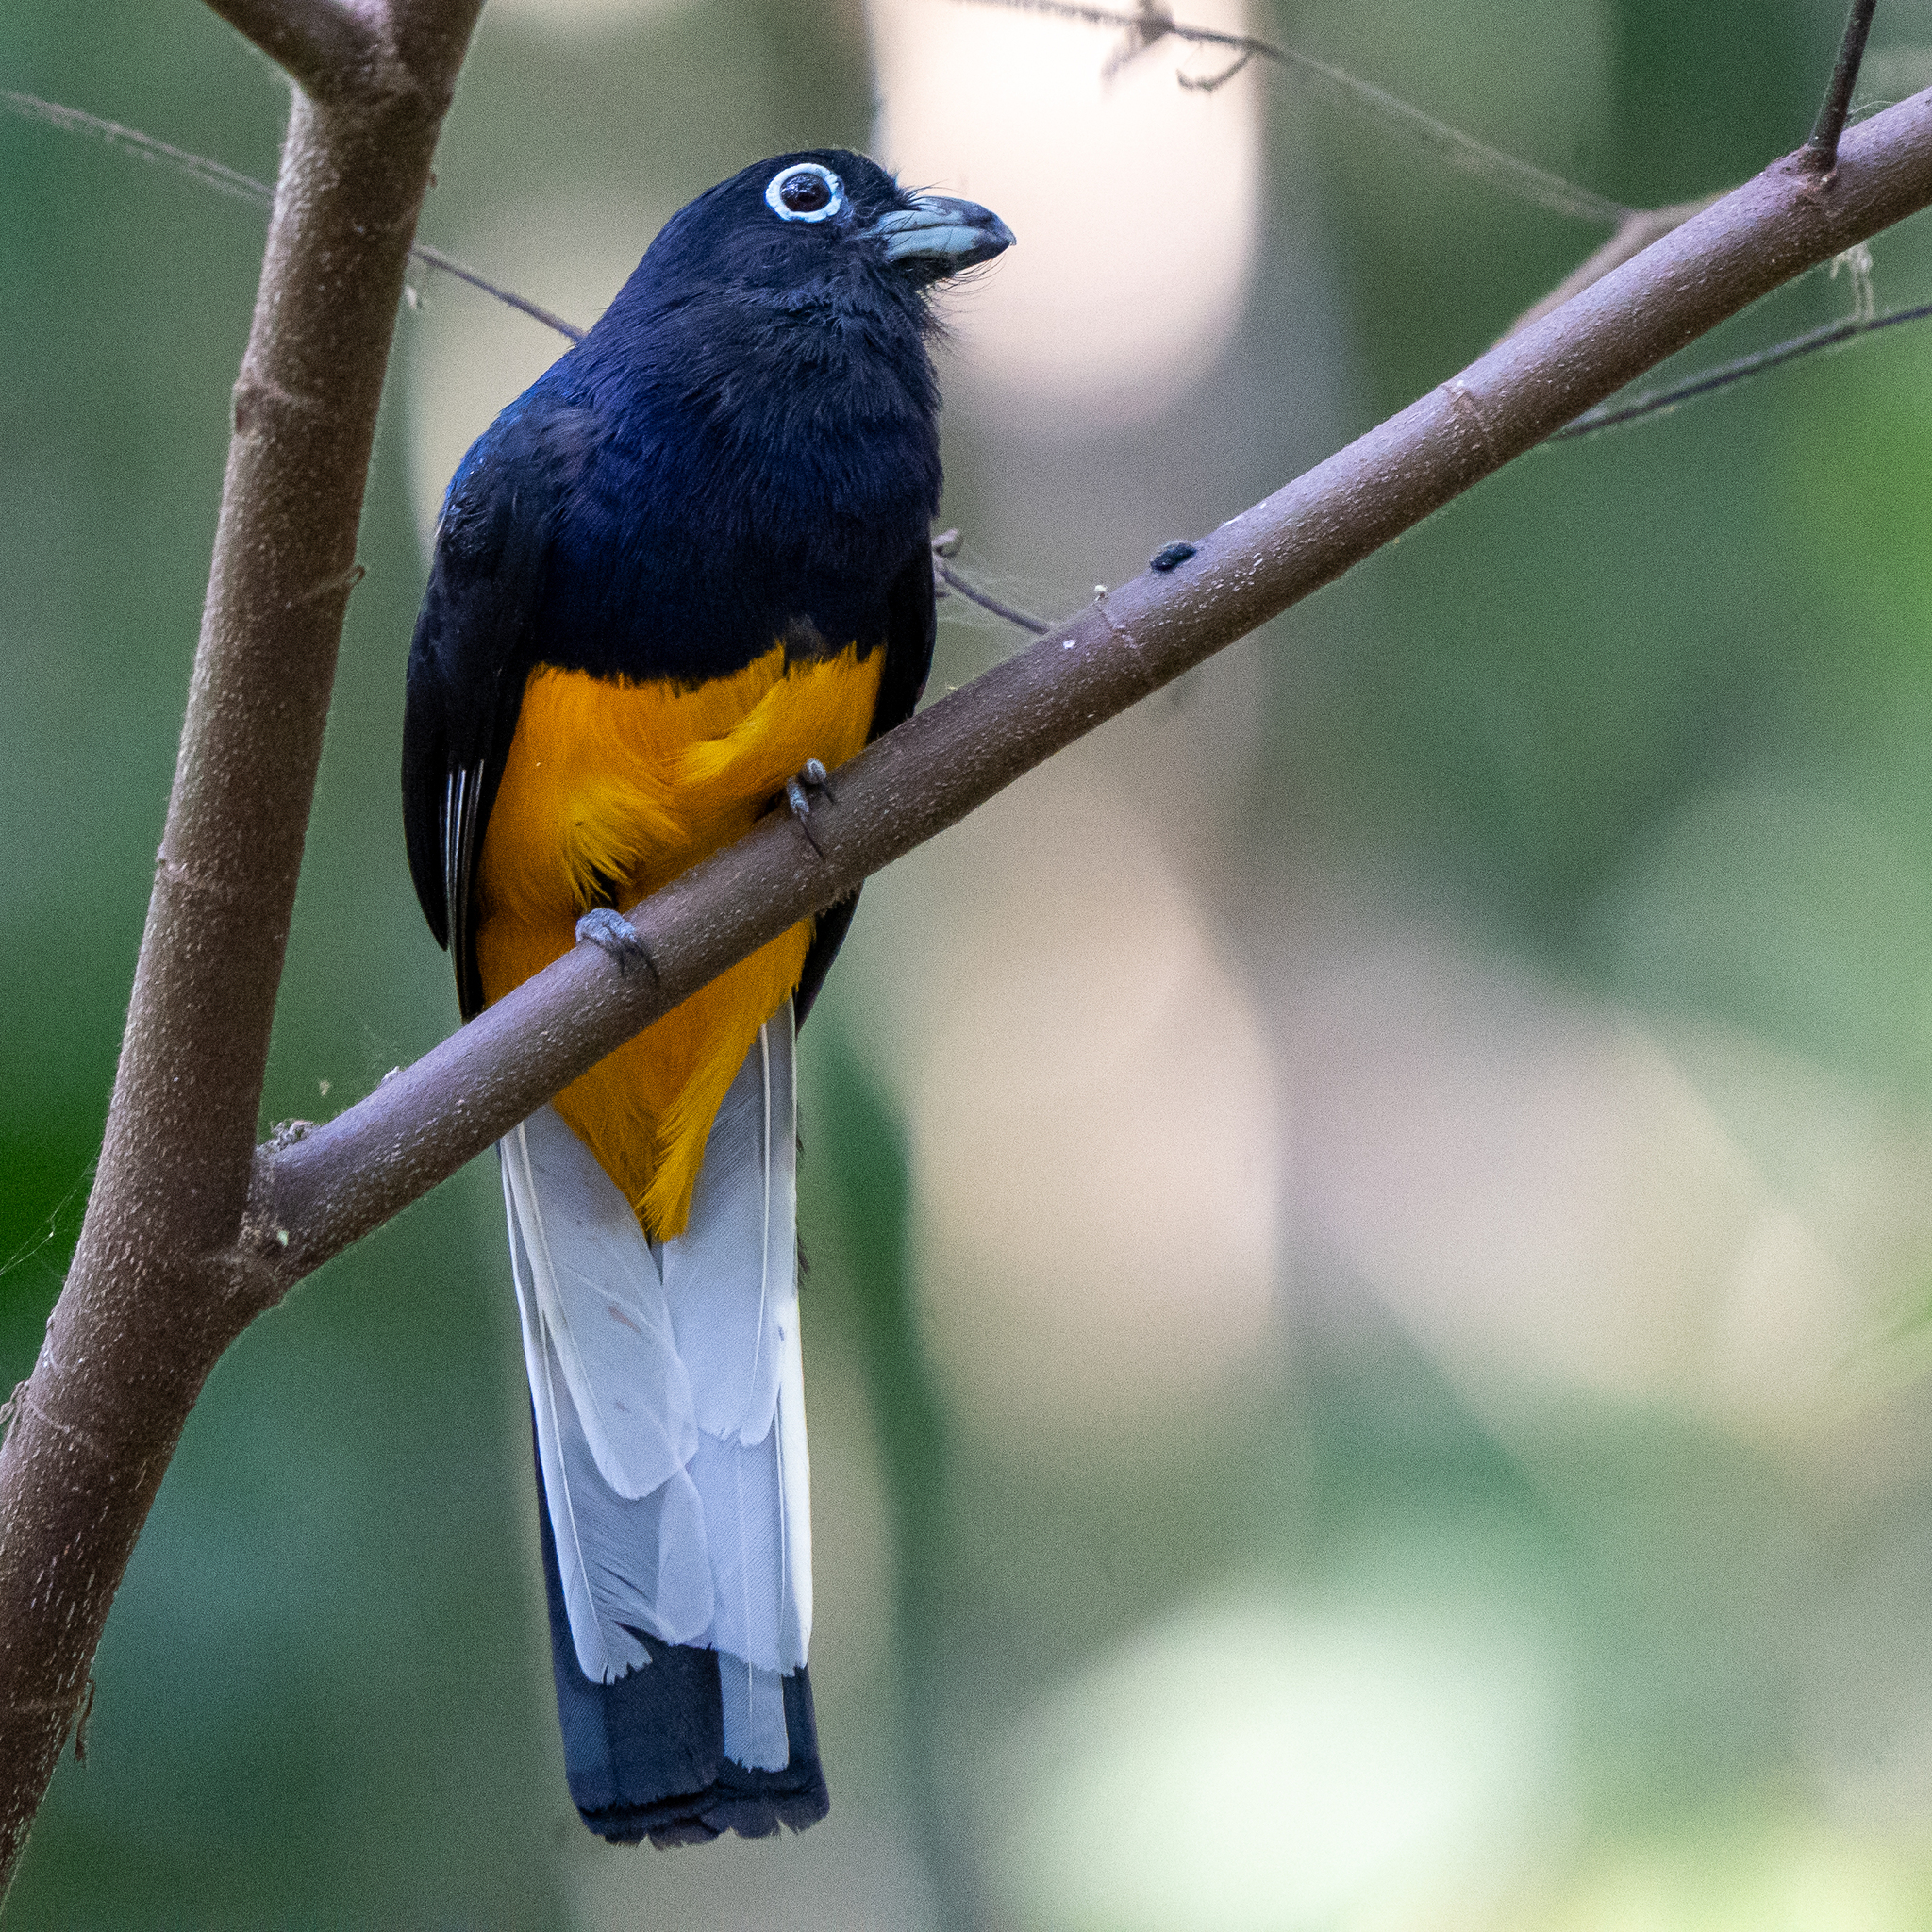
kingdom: Animalia
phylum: Chordata
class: Aves
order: Trogoniformes
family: Trogonidae
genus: Trogon
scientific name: Trogon chionurus
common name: White-tailed trogon
